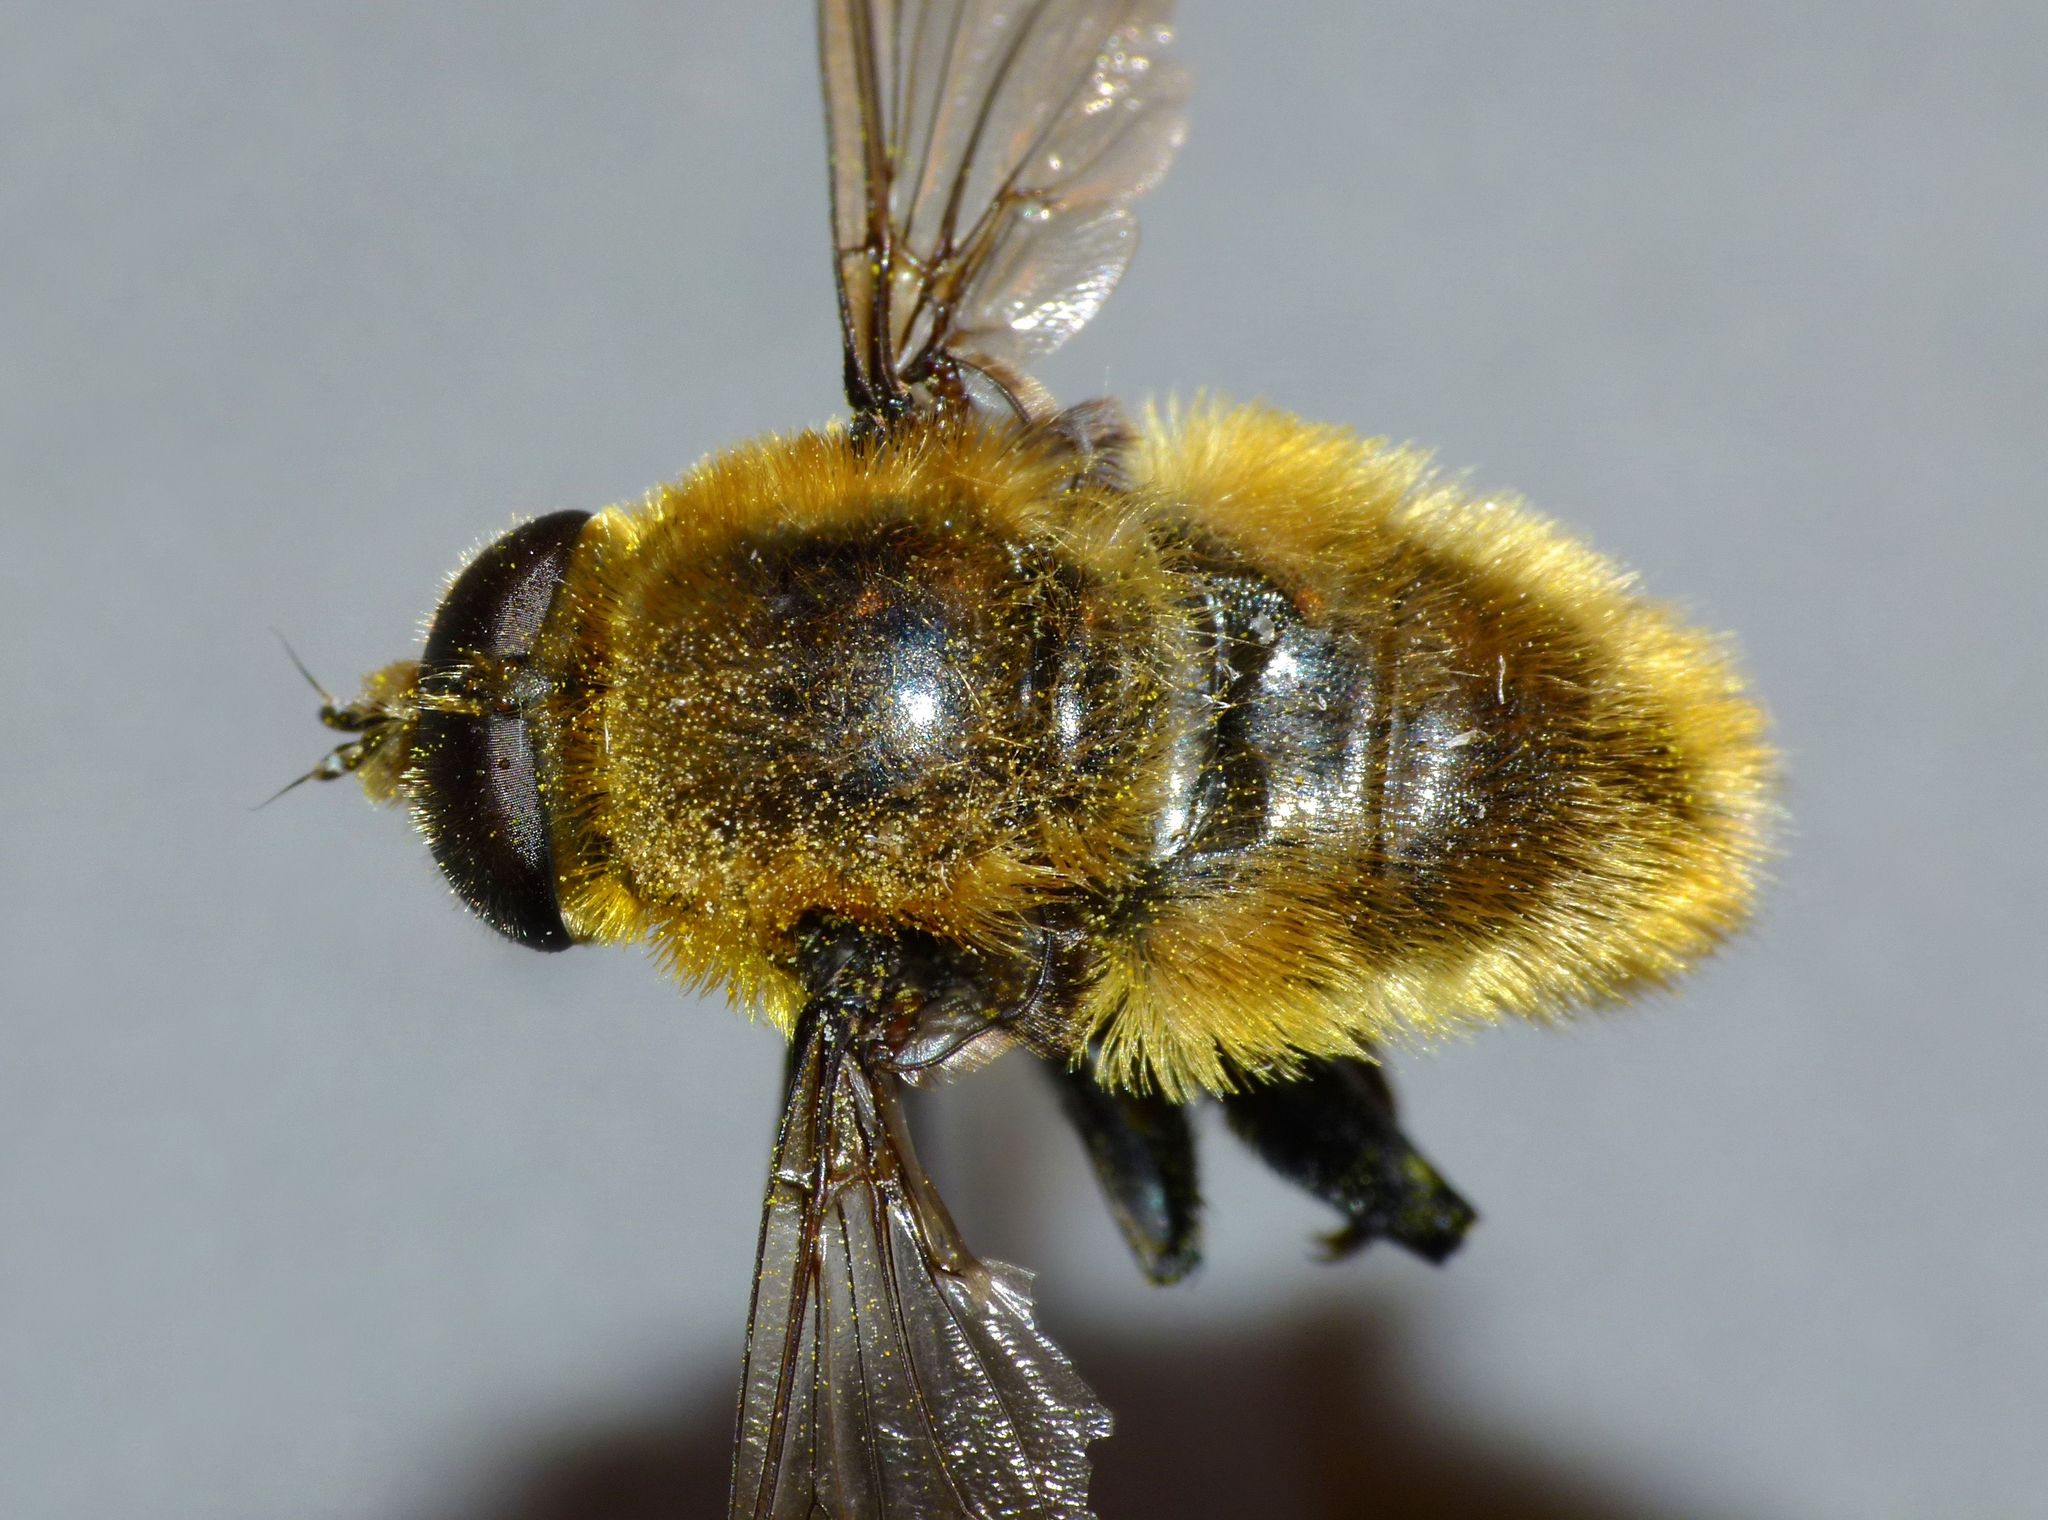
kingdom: Animalia
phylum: Arthropoda
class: Insecta
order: Diptera
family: Syrphidae
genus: Merodon
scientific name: Merodon equestris
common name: Greater bulb-fly
